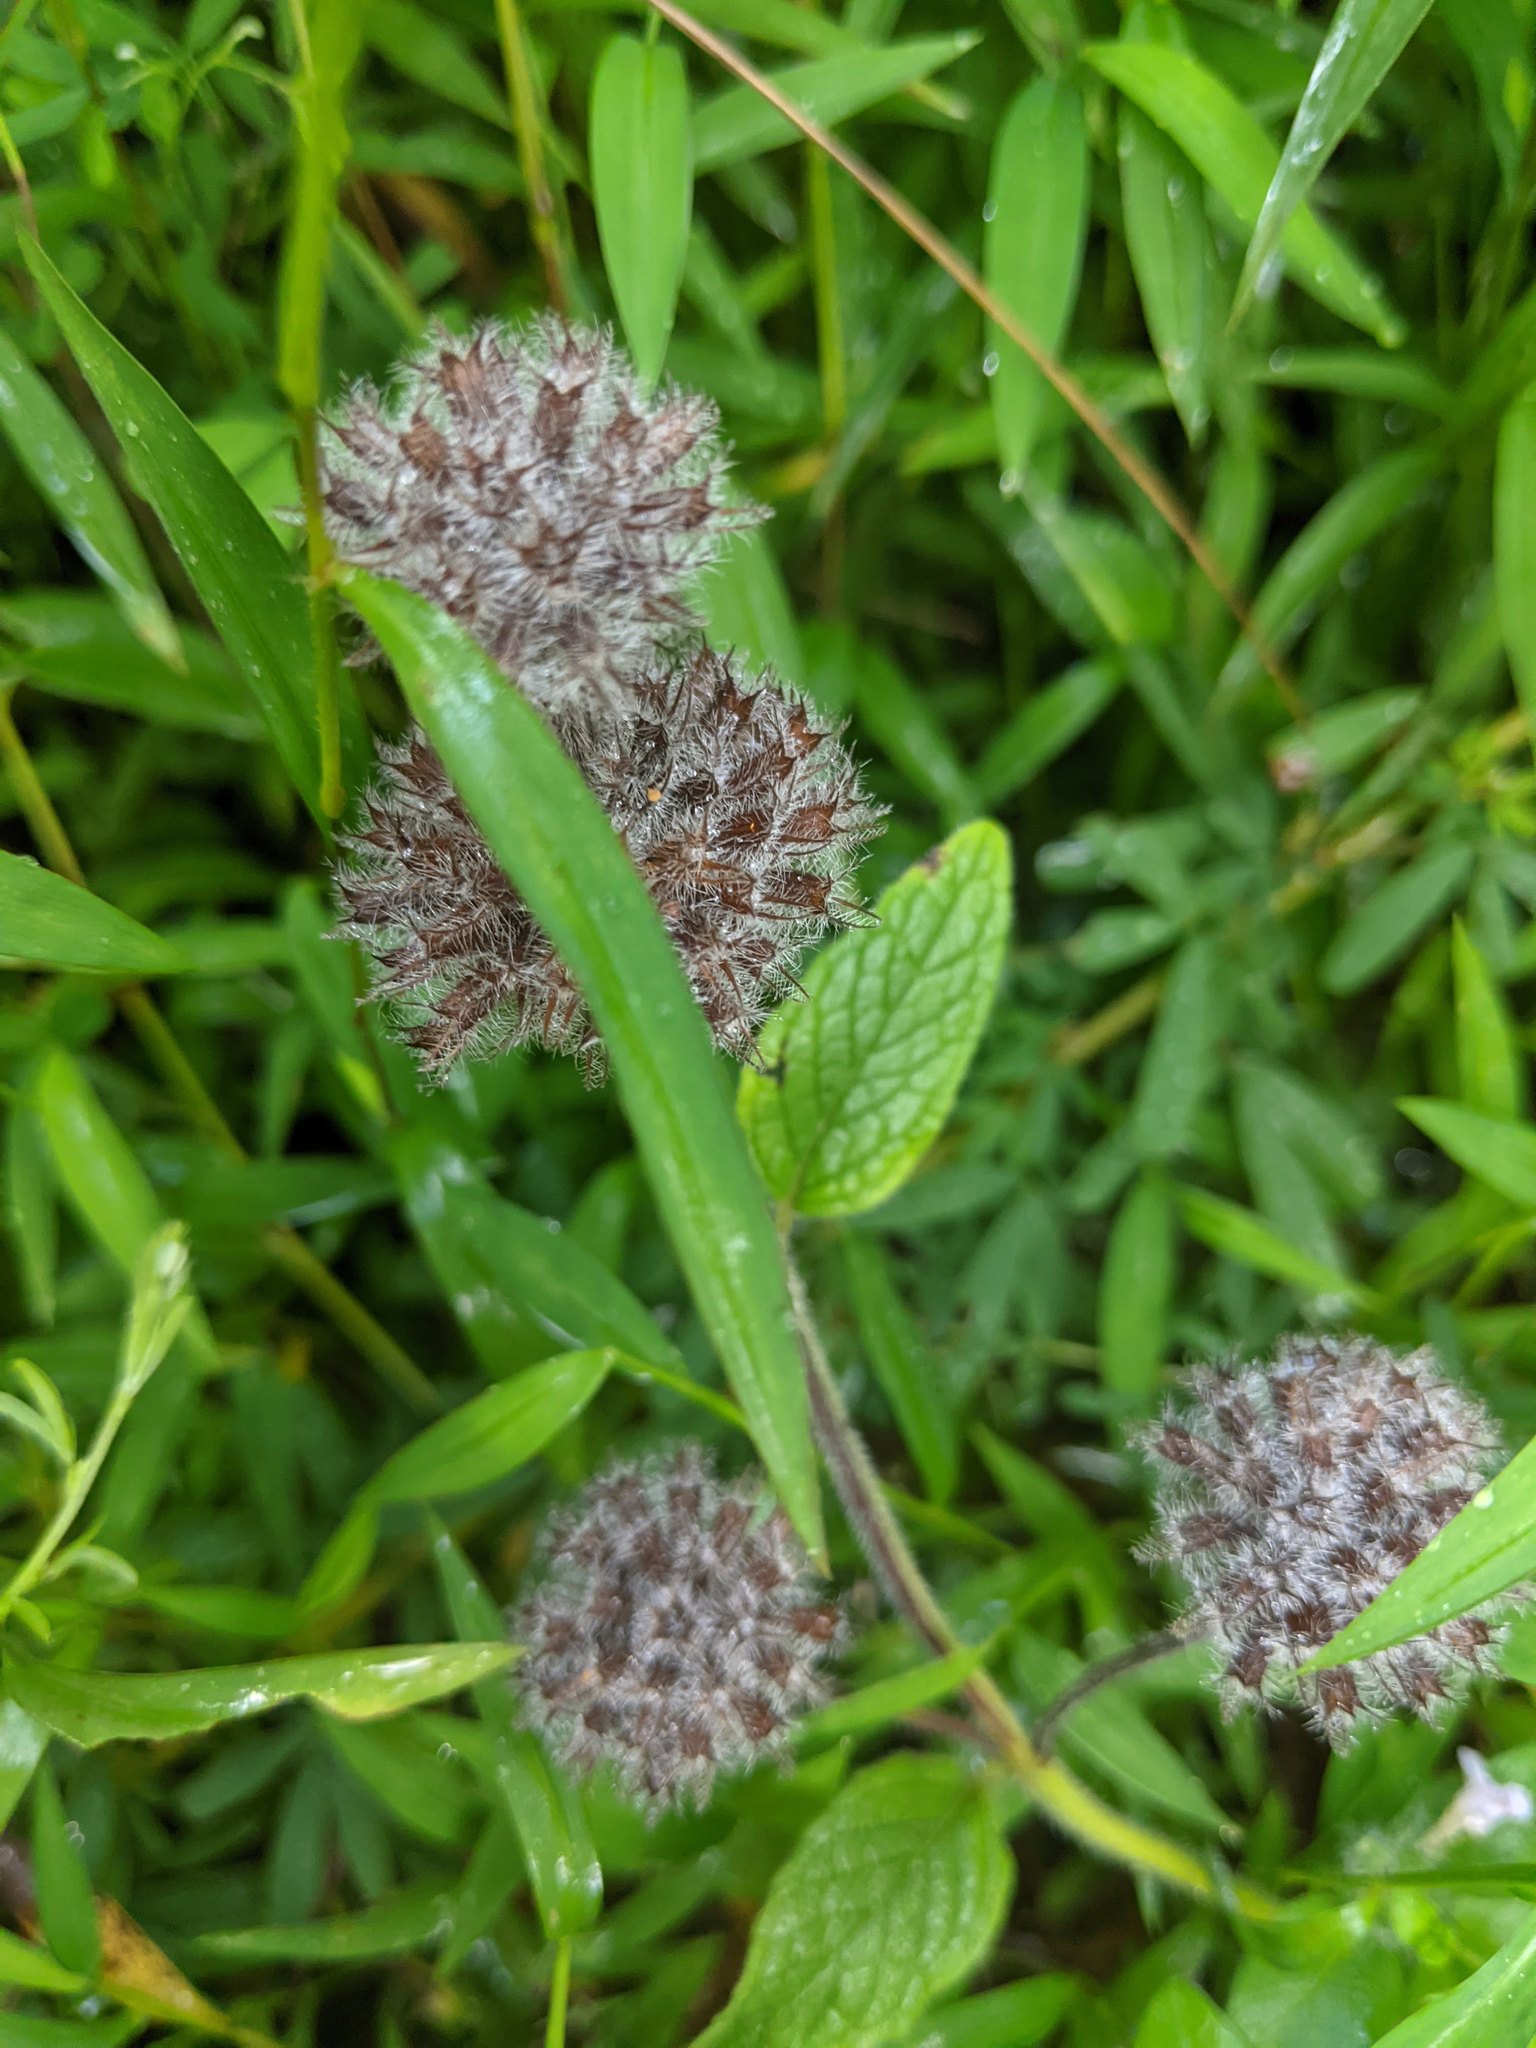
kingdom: Plantae
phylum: Tracheophyta
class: Magnoliopsida
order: Lamiales
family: Lamiaceae
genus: Clinopodium
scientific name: Clinopodium vulgare
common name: Wild basil
